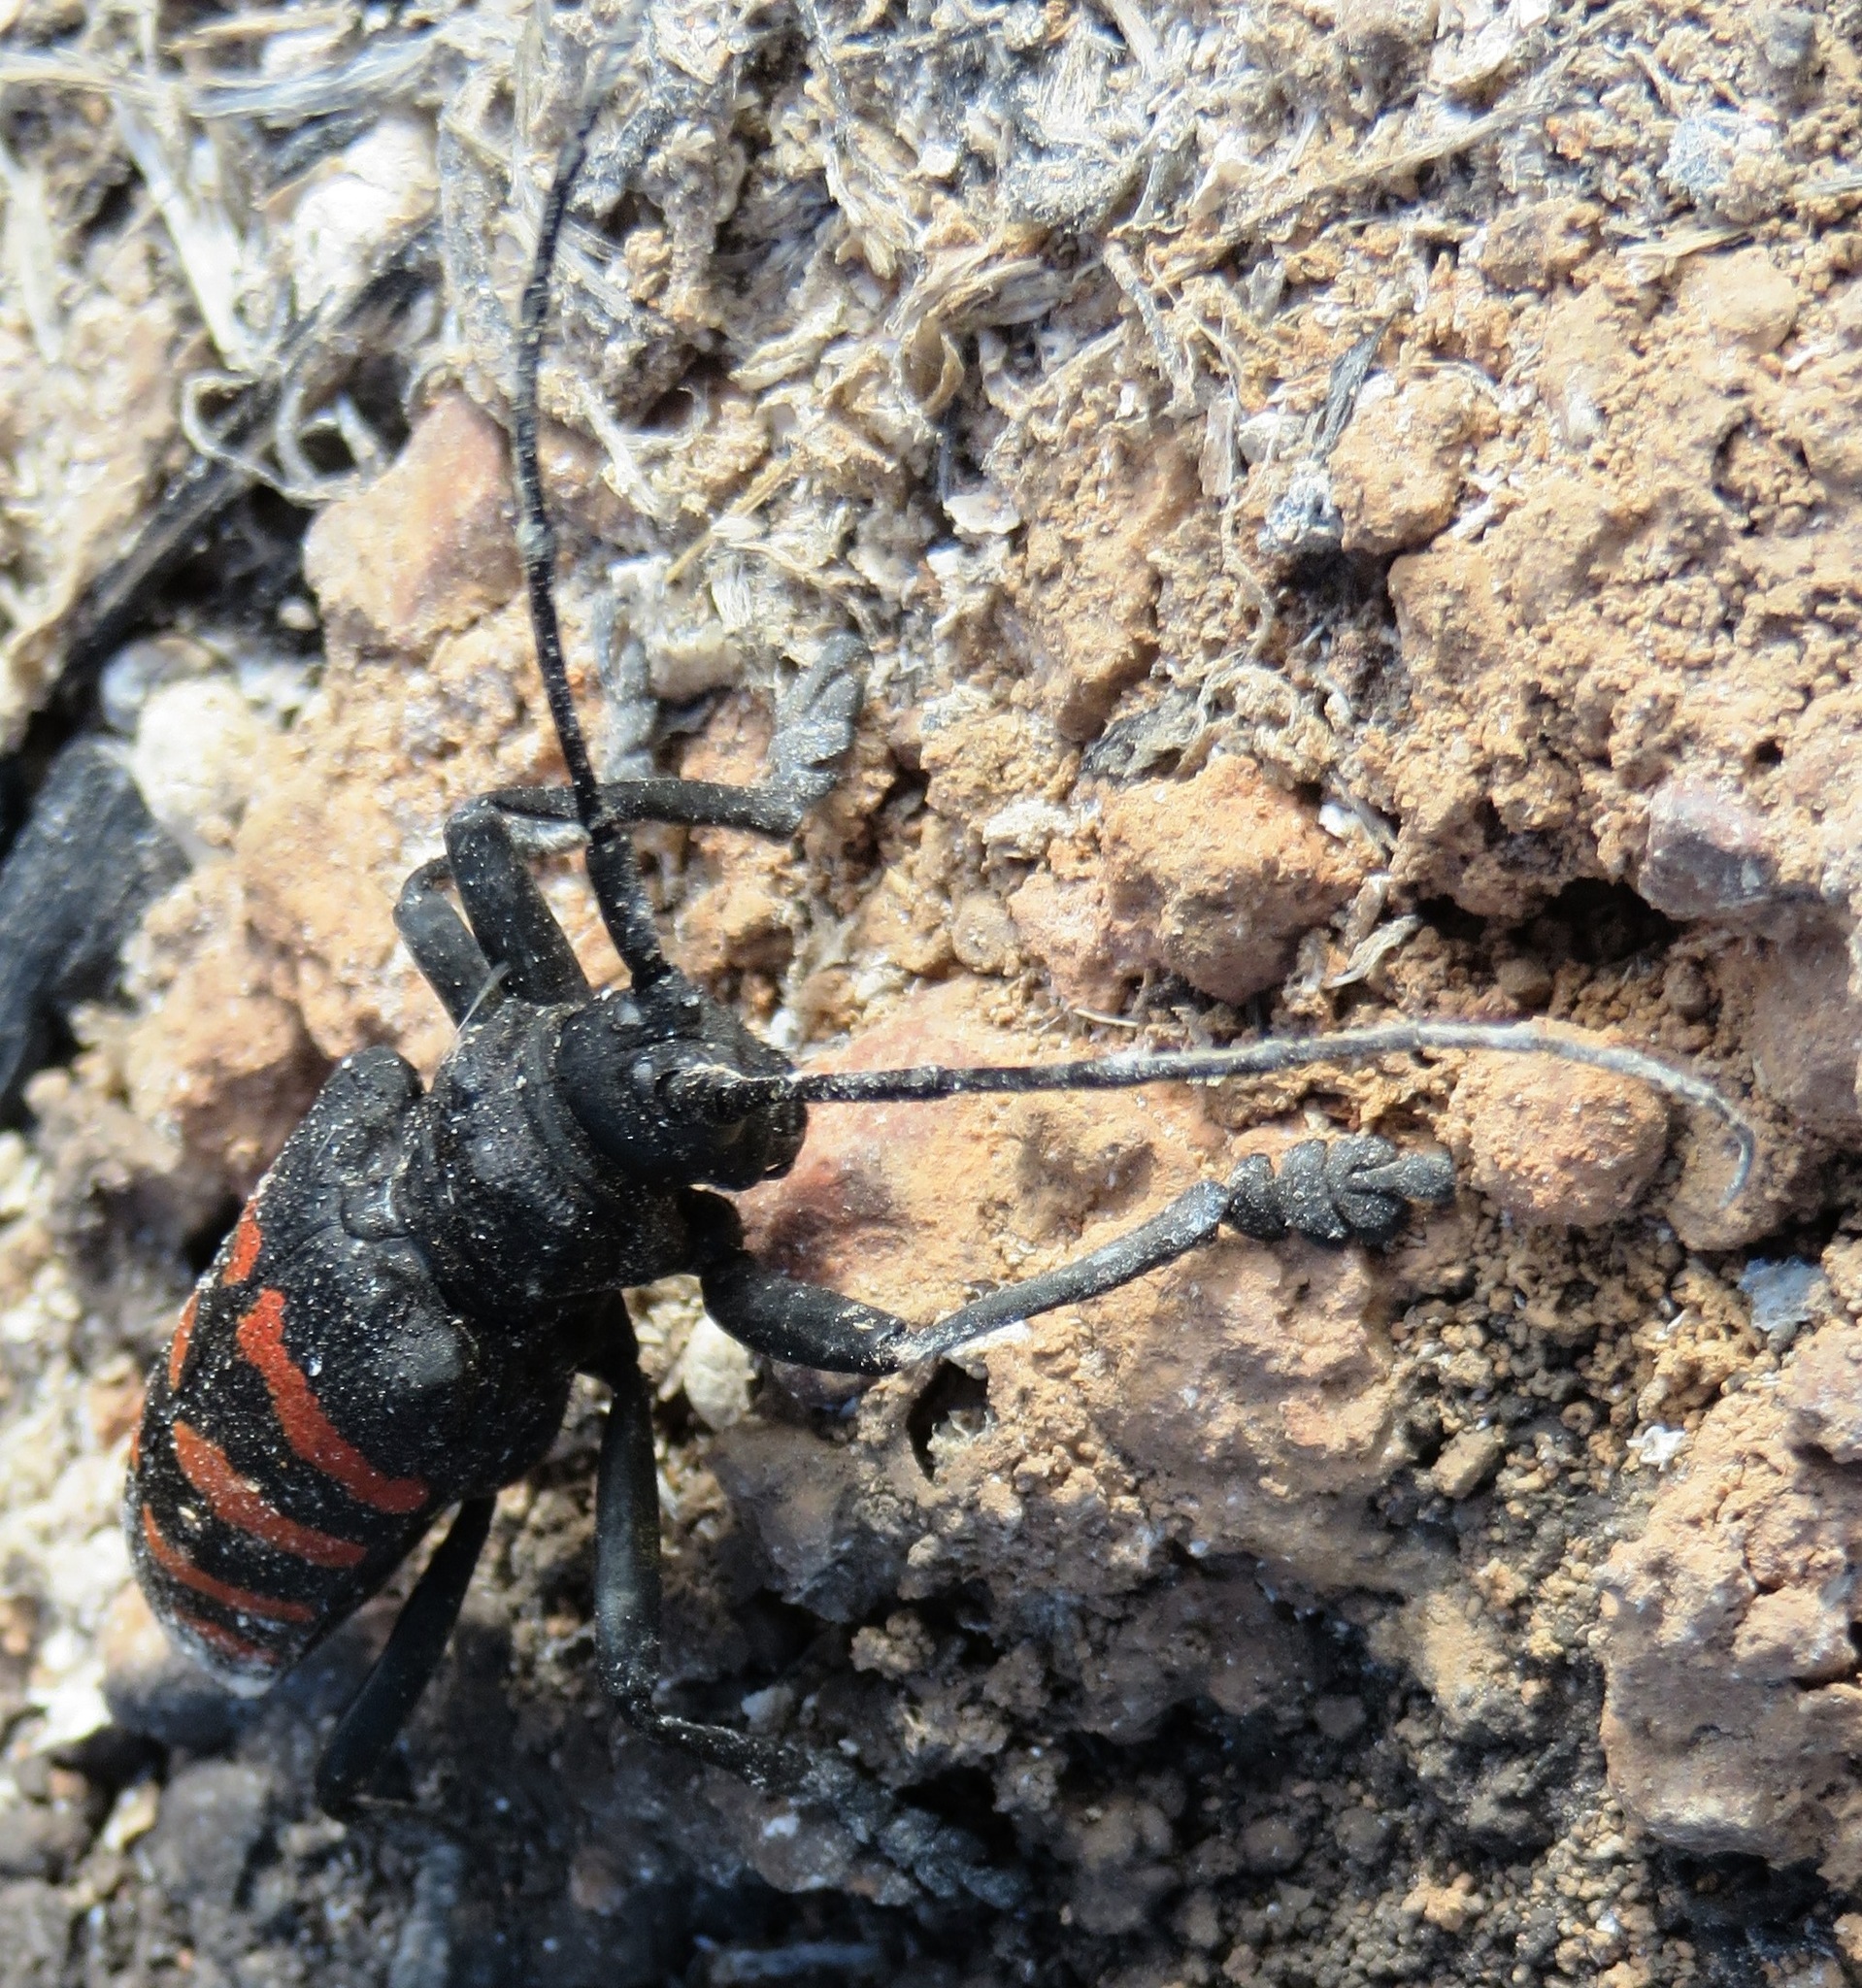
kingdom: Animalia
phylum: Arthropoda
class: Insecta
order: Coleoptera
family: Cerambycidae
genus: Ceroplesis
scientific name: Ceroplesis capensis
